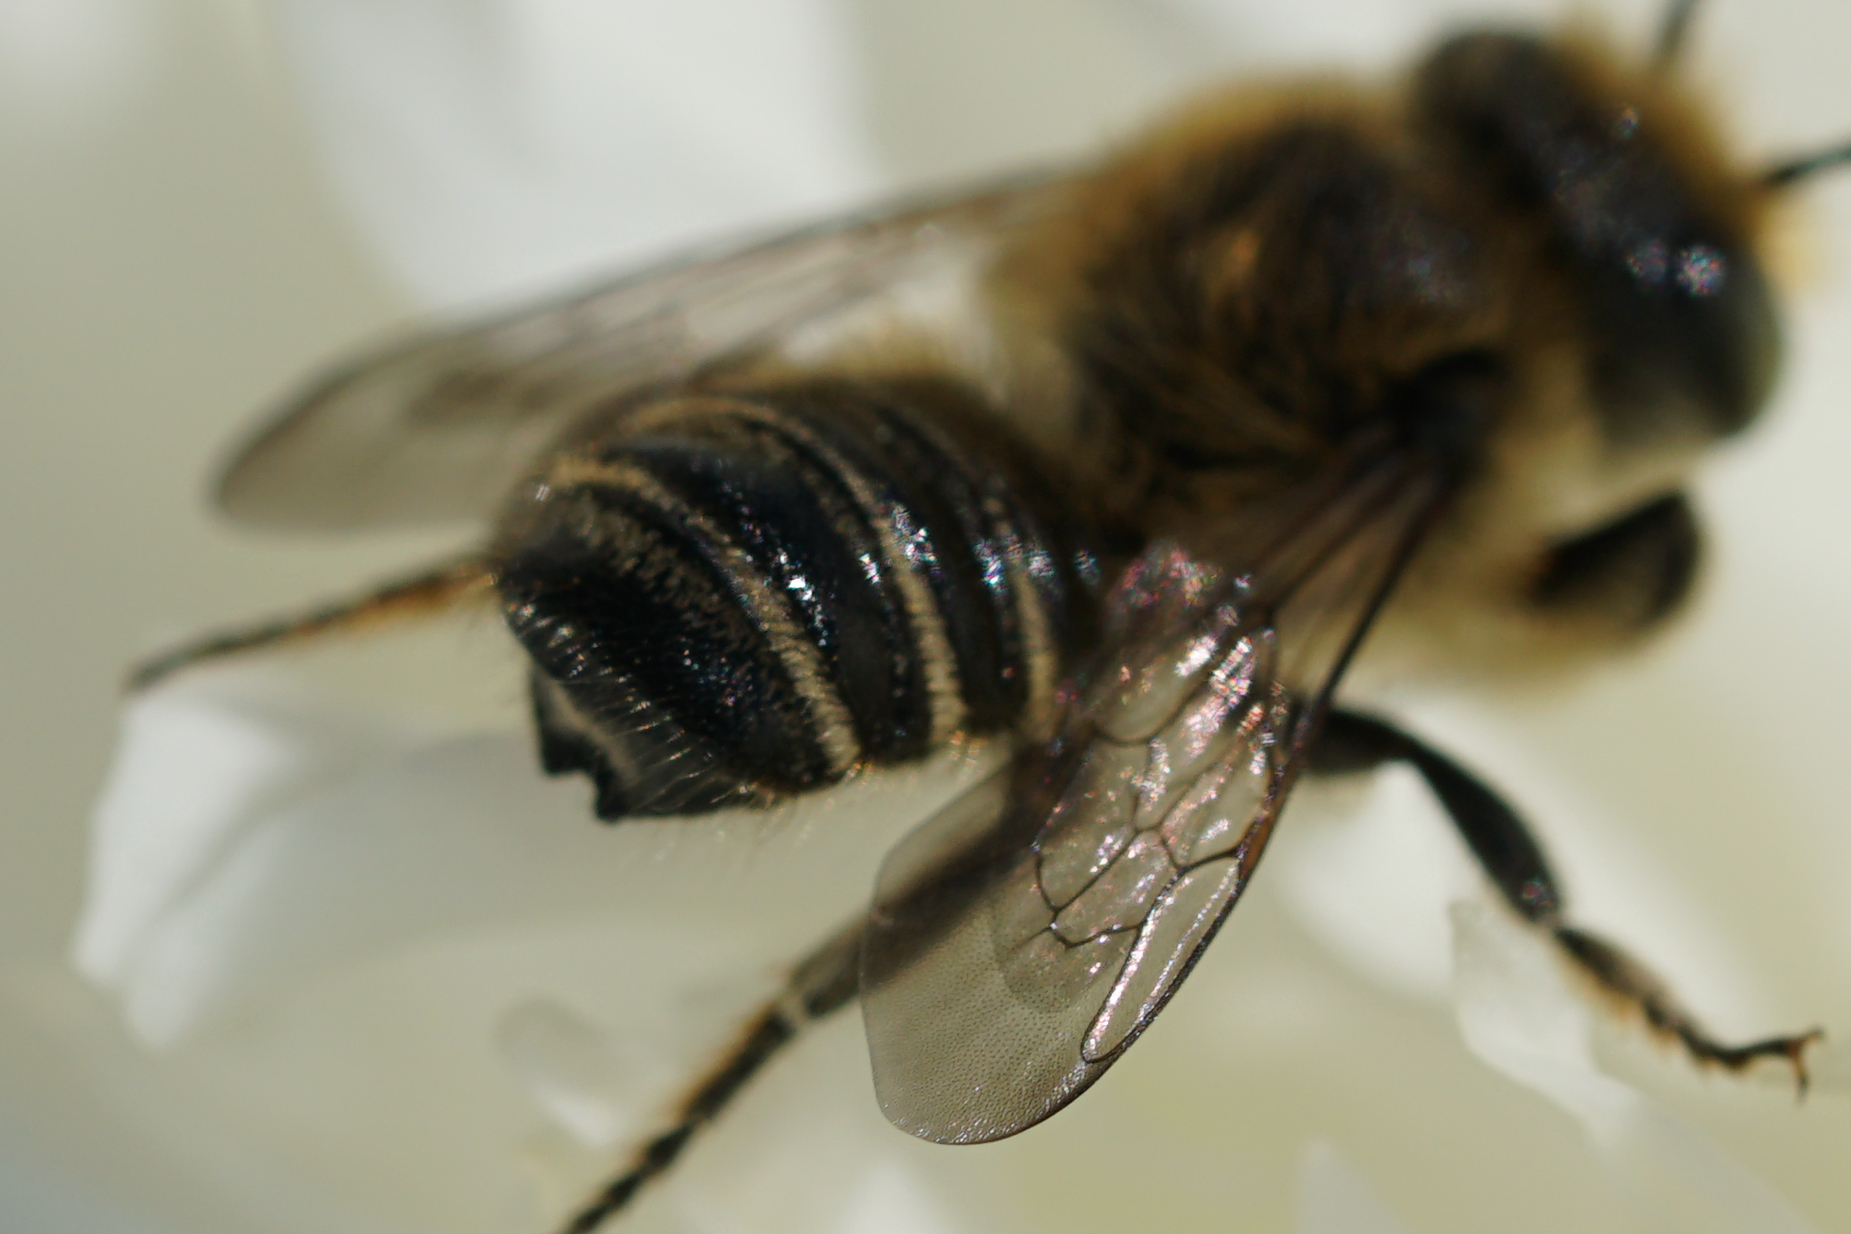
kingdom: Animalia
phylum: Arthropoda
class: Insecta
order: Hymenoptera
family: Megachilidae
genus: Megachile
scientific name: Megachile mendica
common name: Flat-tailed leafcutter
